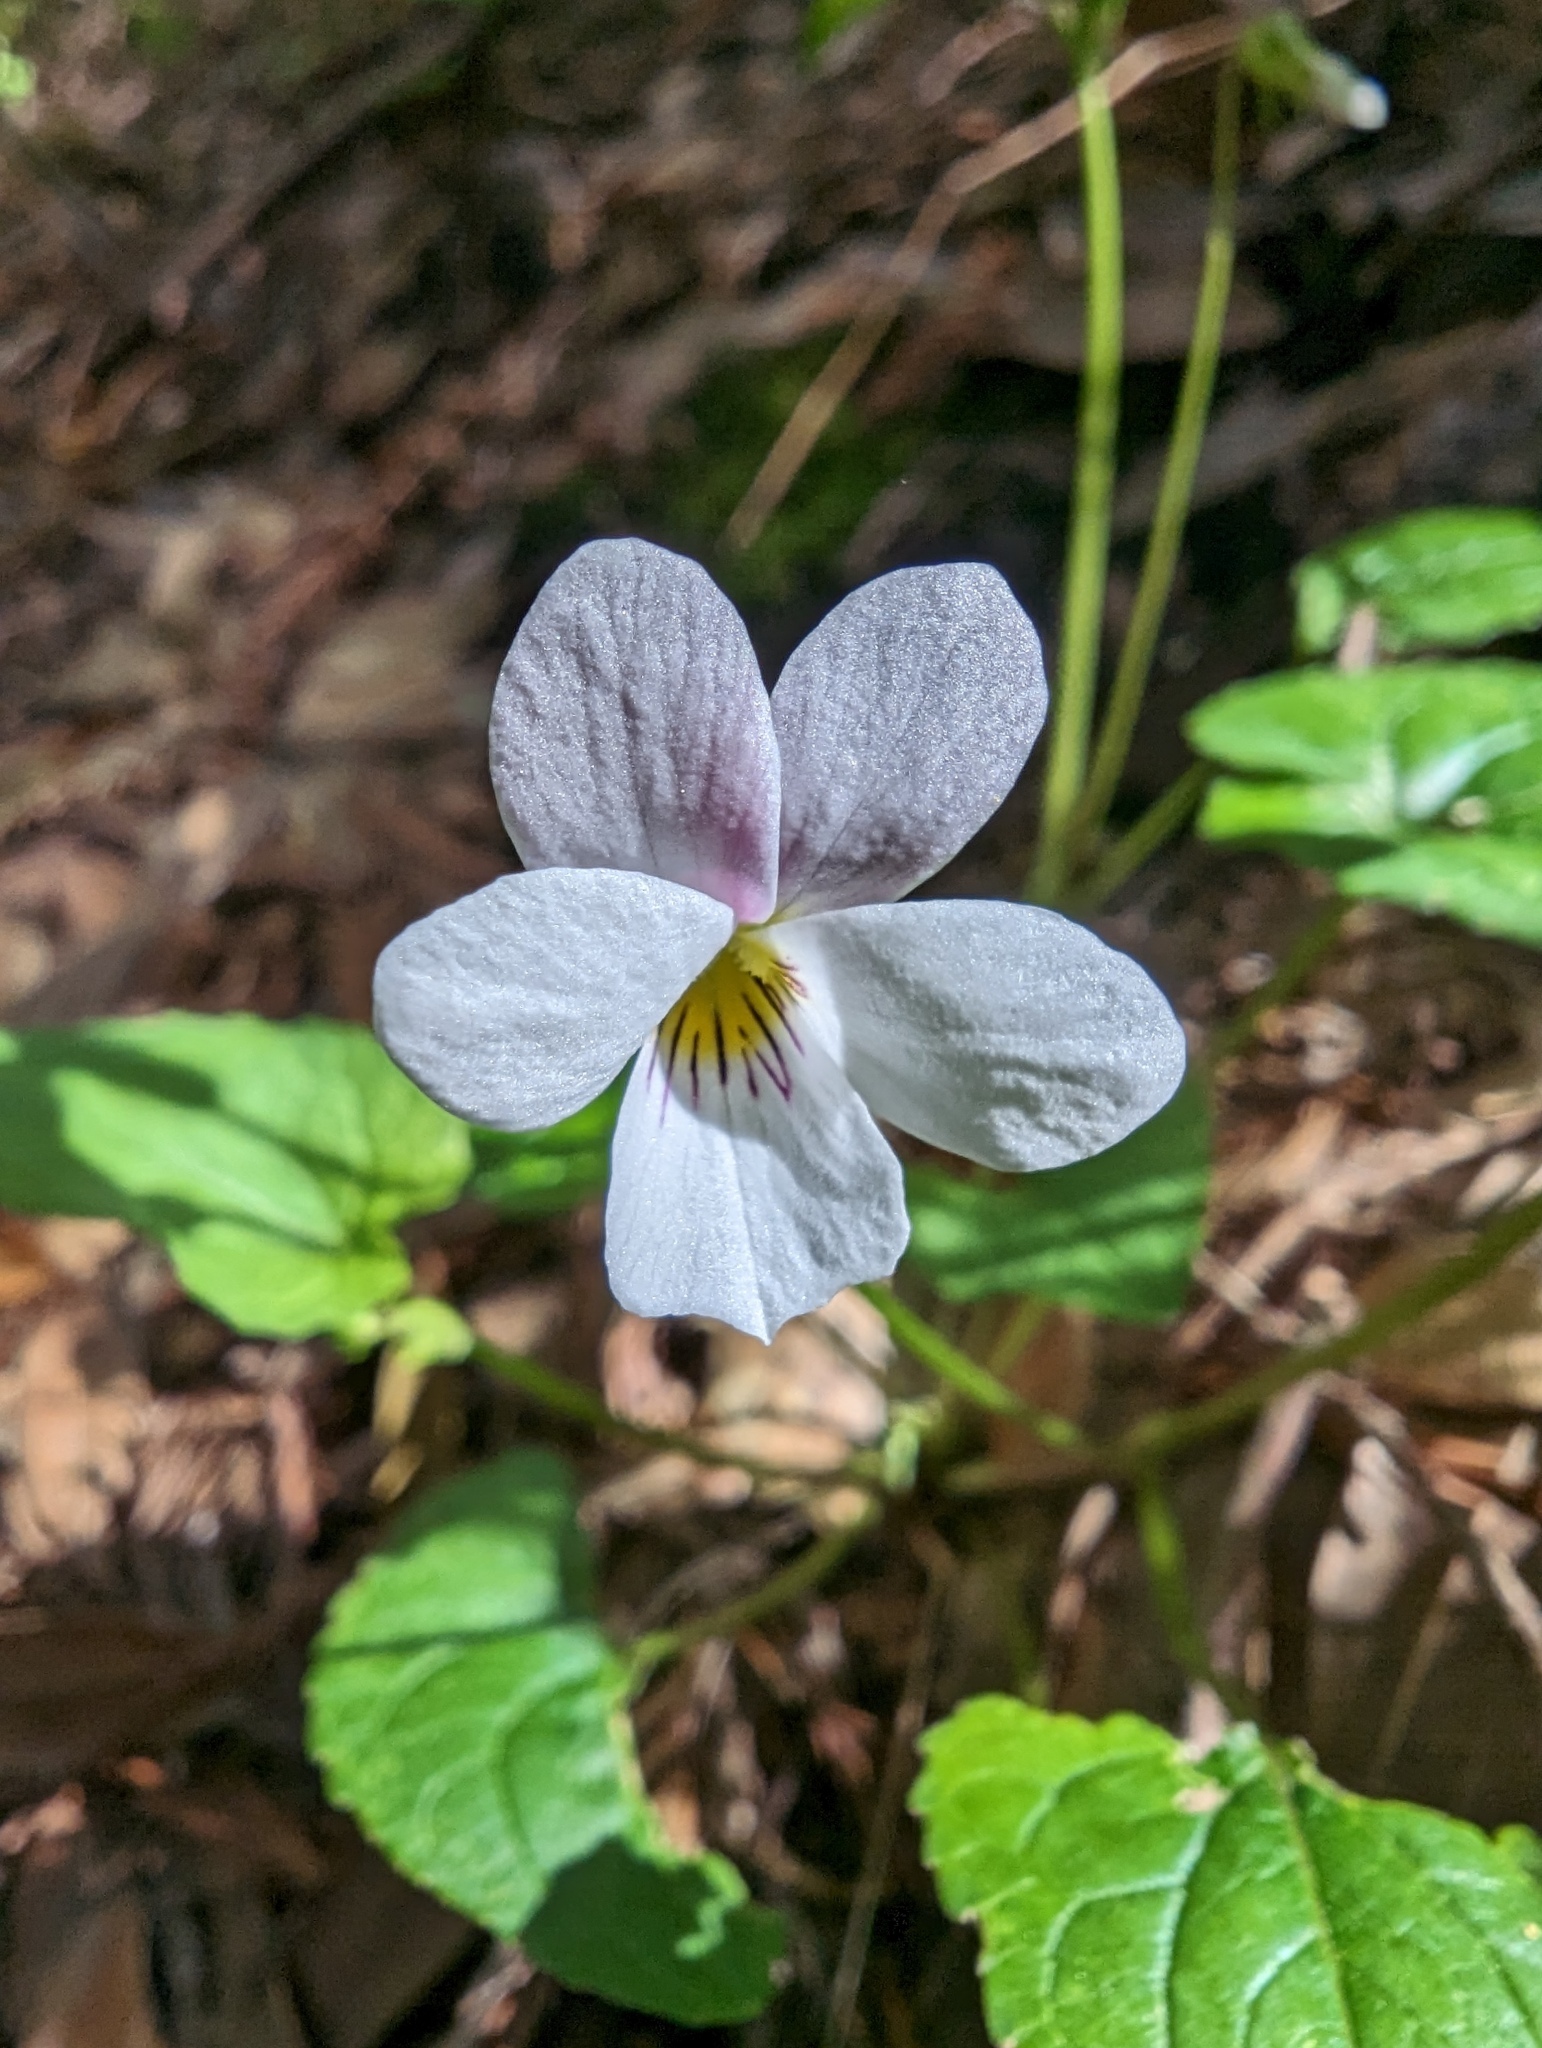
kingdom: Plantae
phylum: Tracheophyta
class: Magnoliopsida
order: Malpighiales
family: Violaceae
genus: Viola
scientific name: Viola ocellata
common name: Western heart's ease
